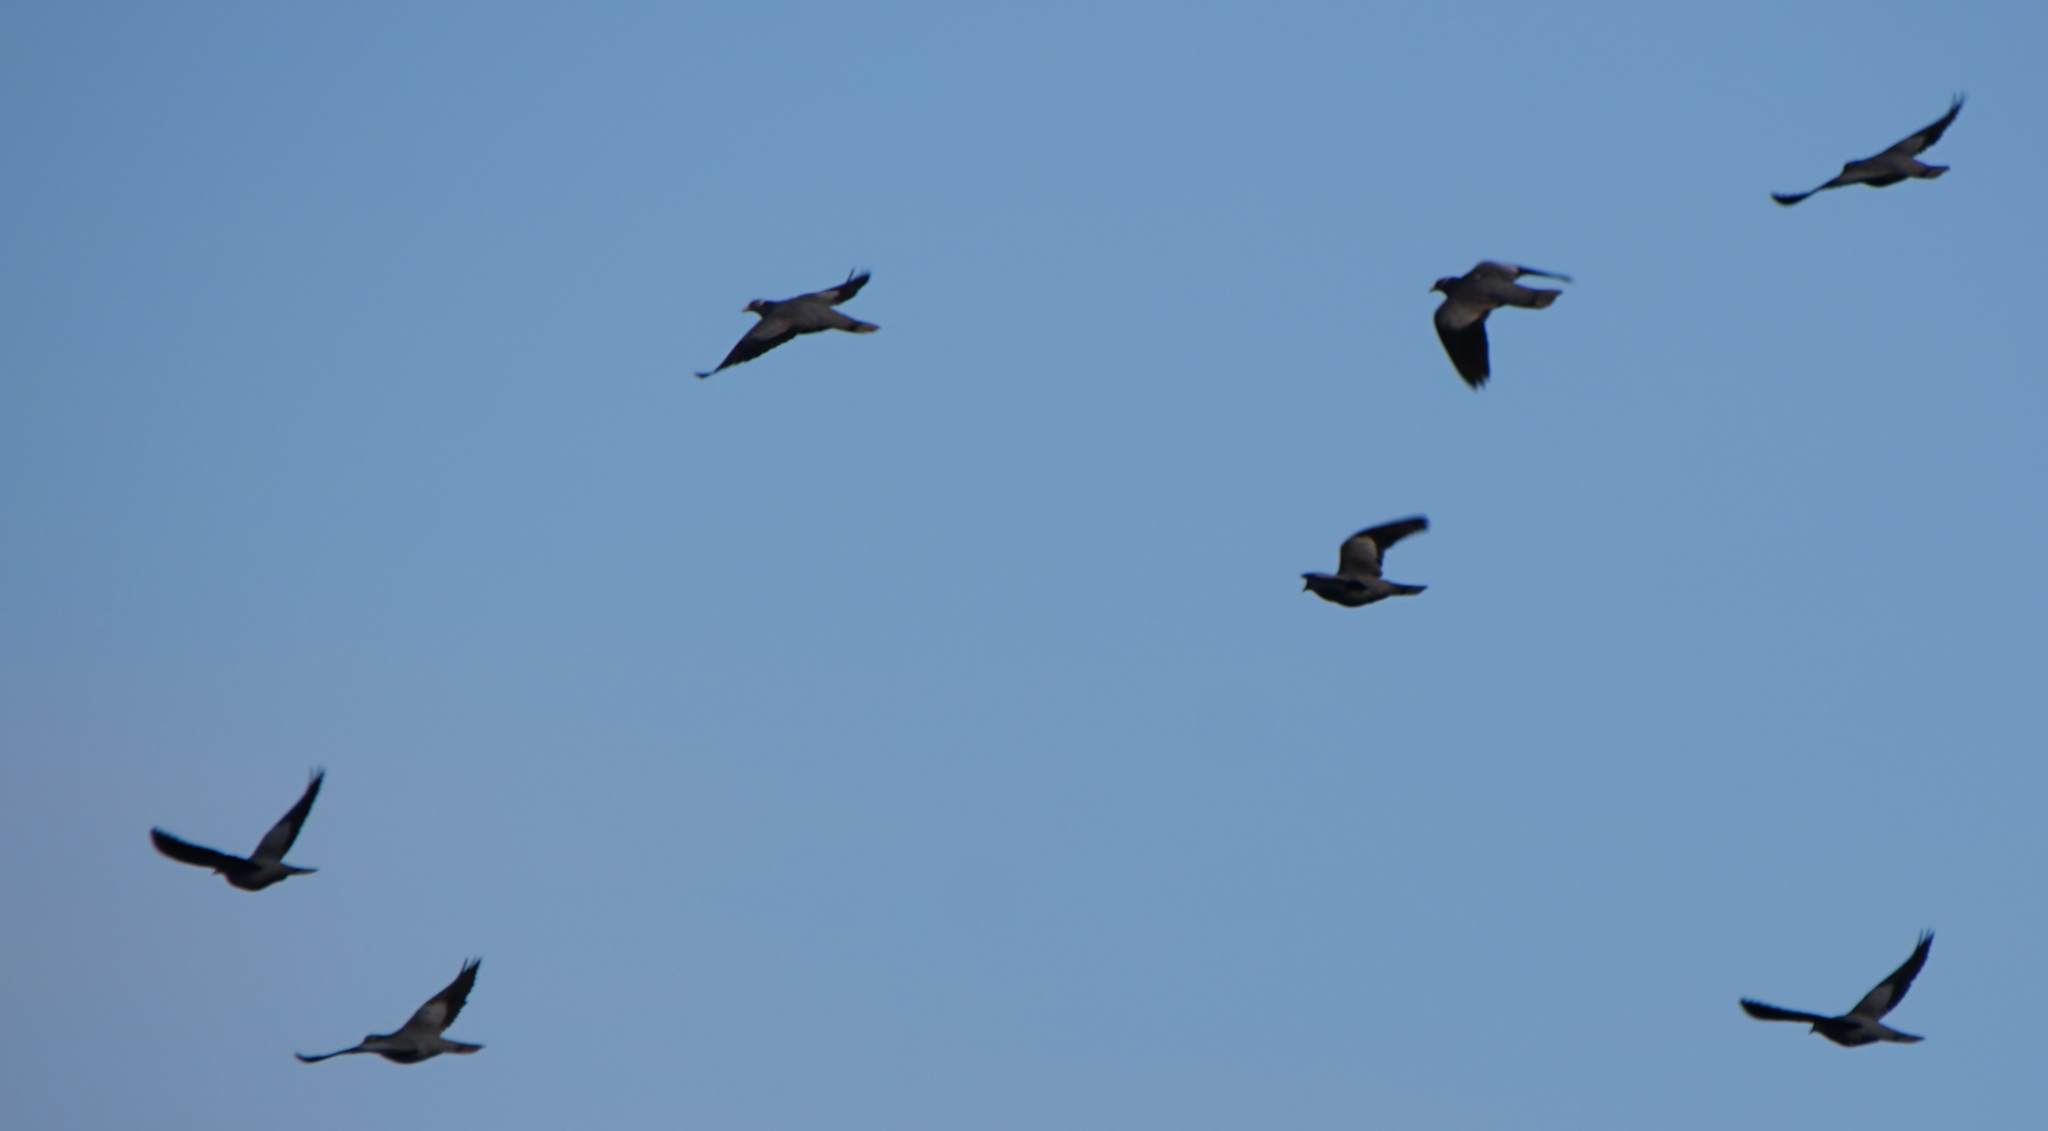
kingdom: Animalia
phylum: Chordata
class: Aves
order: Columbiformes
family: Columbidae
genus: Patagioenas
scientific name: Patagioenas fasciata
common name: Band-tailed pigeon
